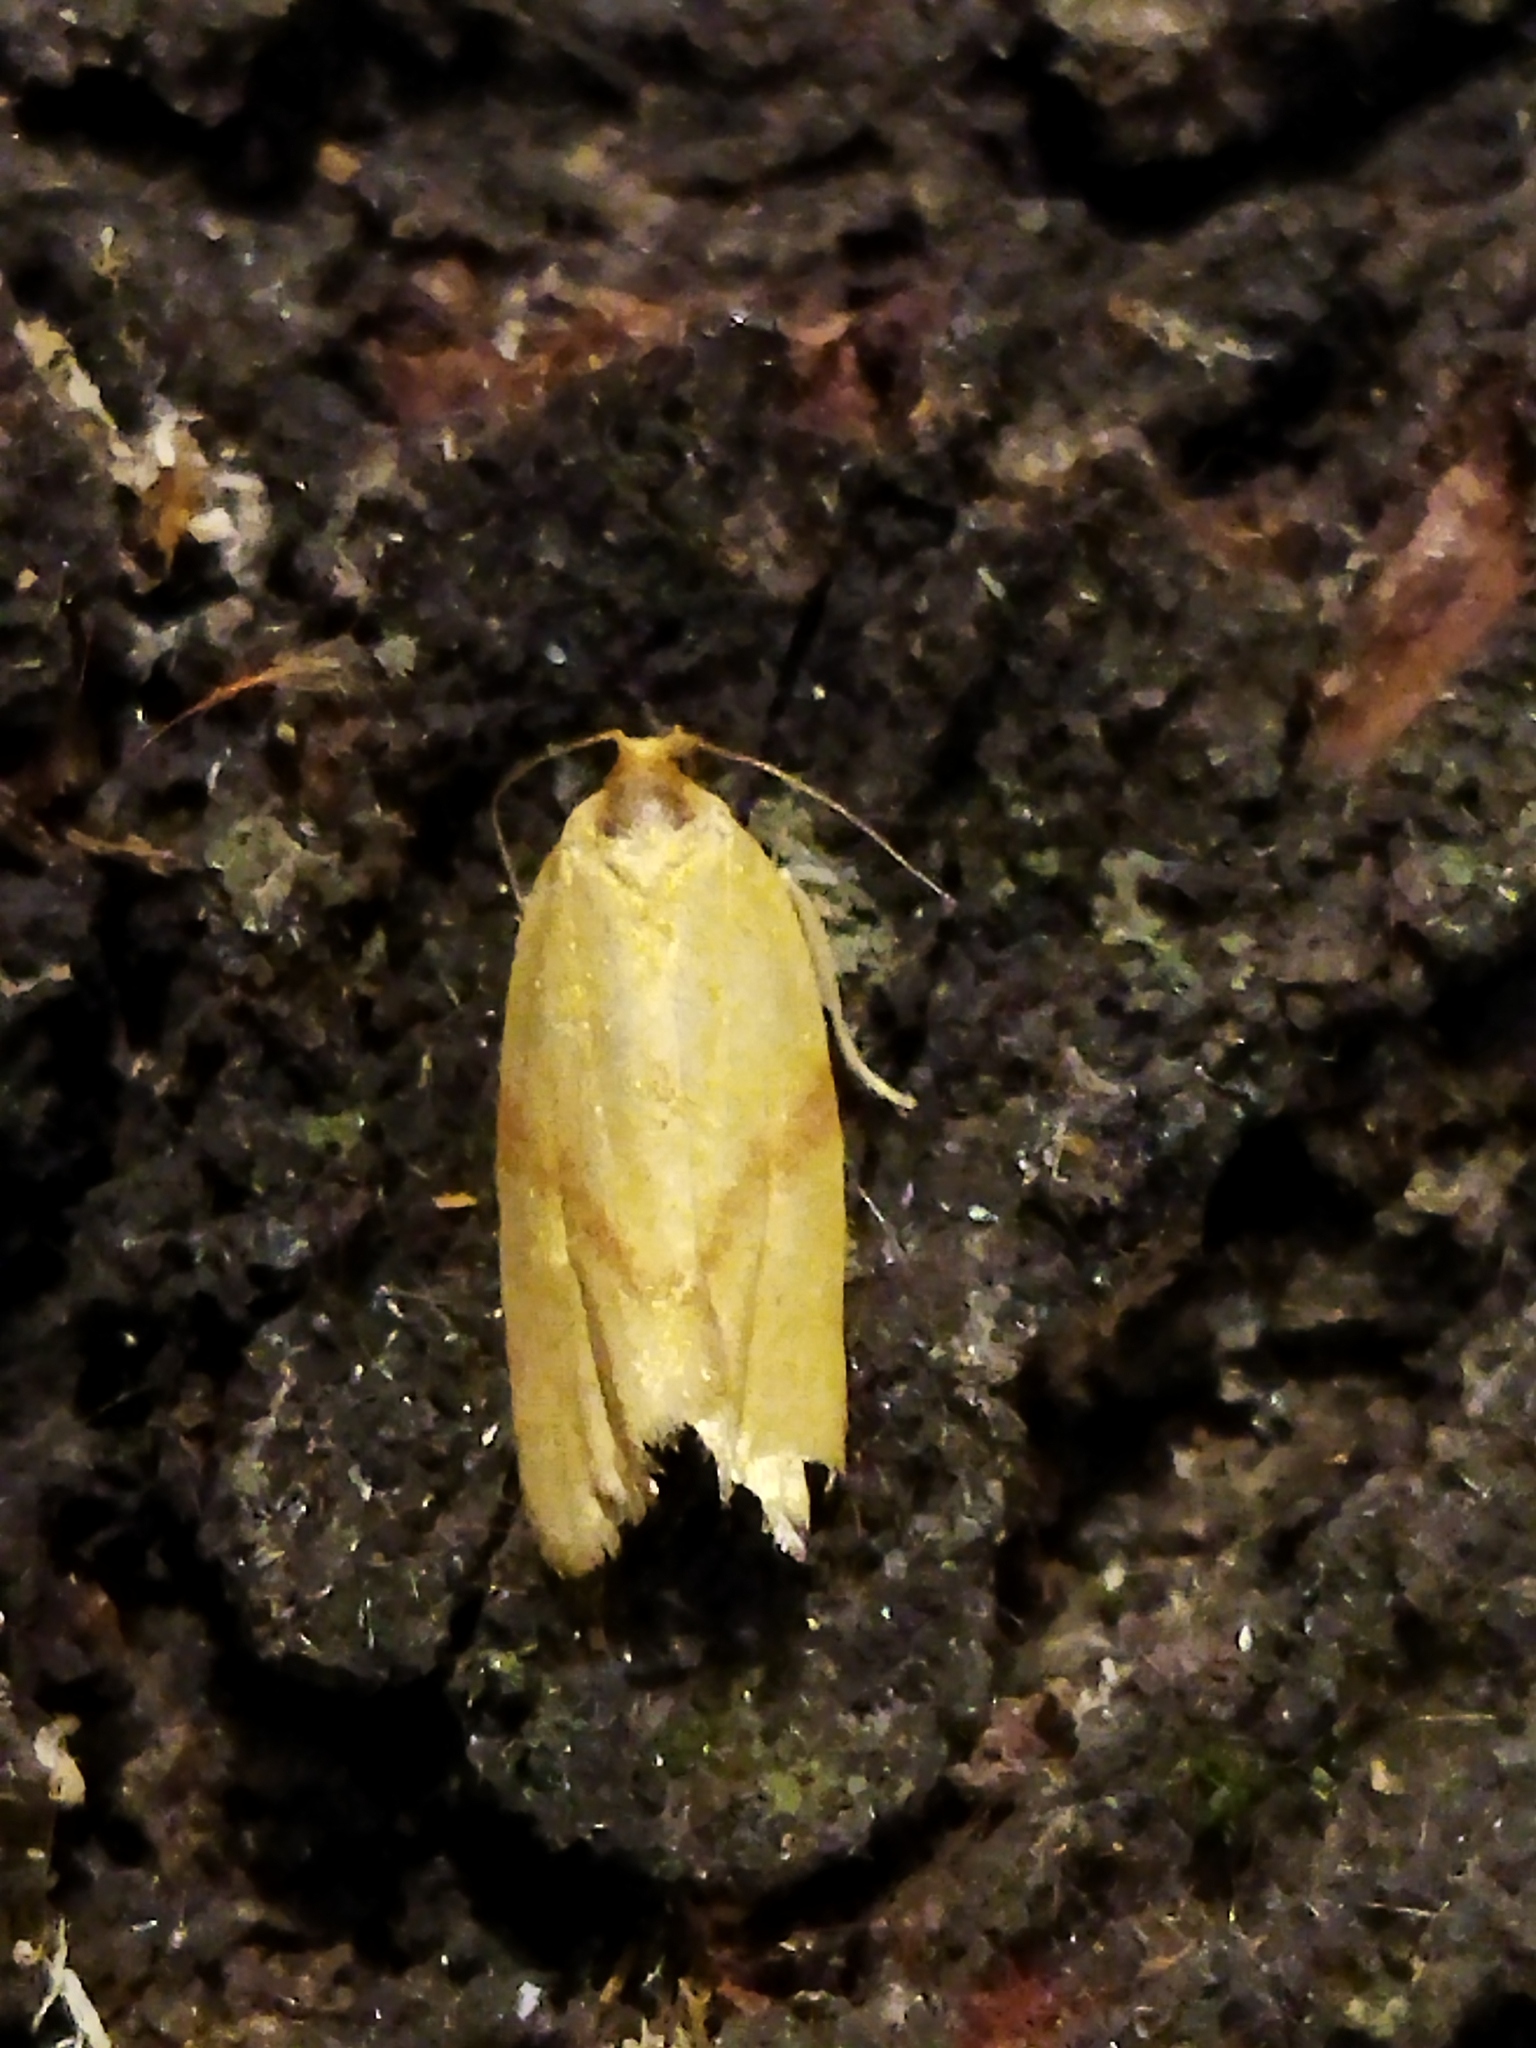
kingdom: Animalia
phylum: Arthropoda
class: Insecta
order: Lepidoptera
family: Tortricidae
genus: Clepsis
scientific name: Clepsis pallidana
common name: Sheep's-bit conch
